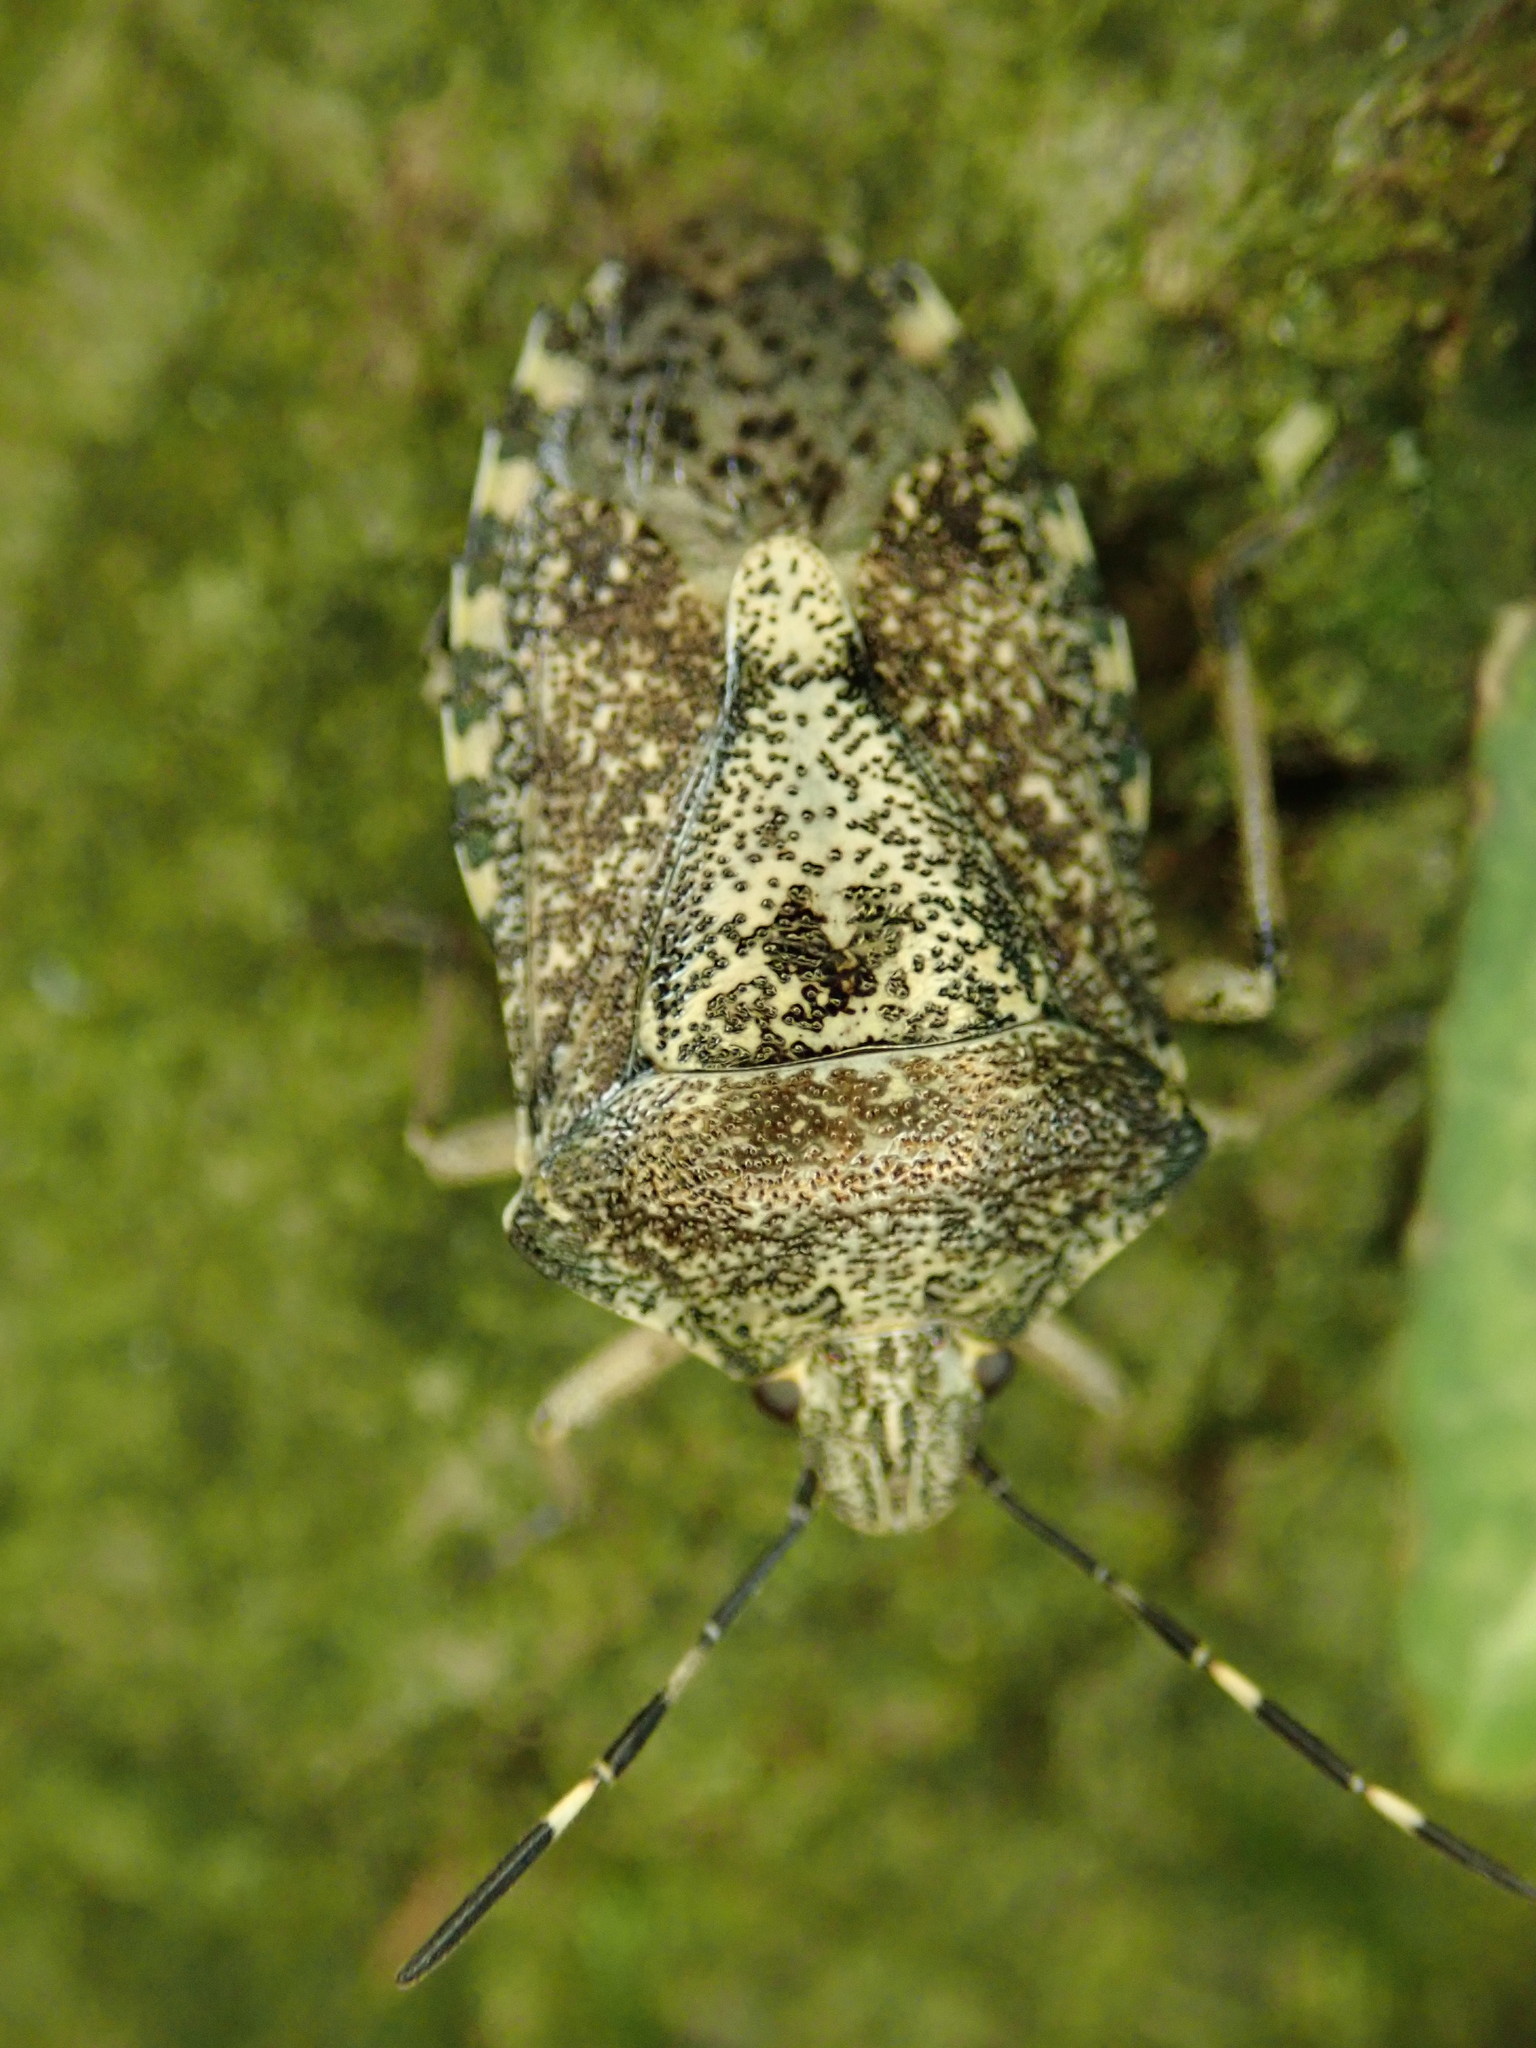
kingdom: Animalia
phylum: Arthropoda
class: Insecta
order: Hemiptera
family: Pentatomidae
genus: Rhaphigaster
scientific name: Rhaphigaster nebulosa
